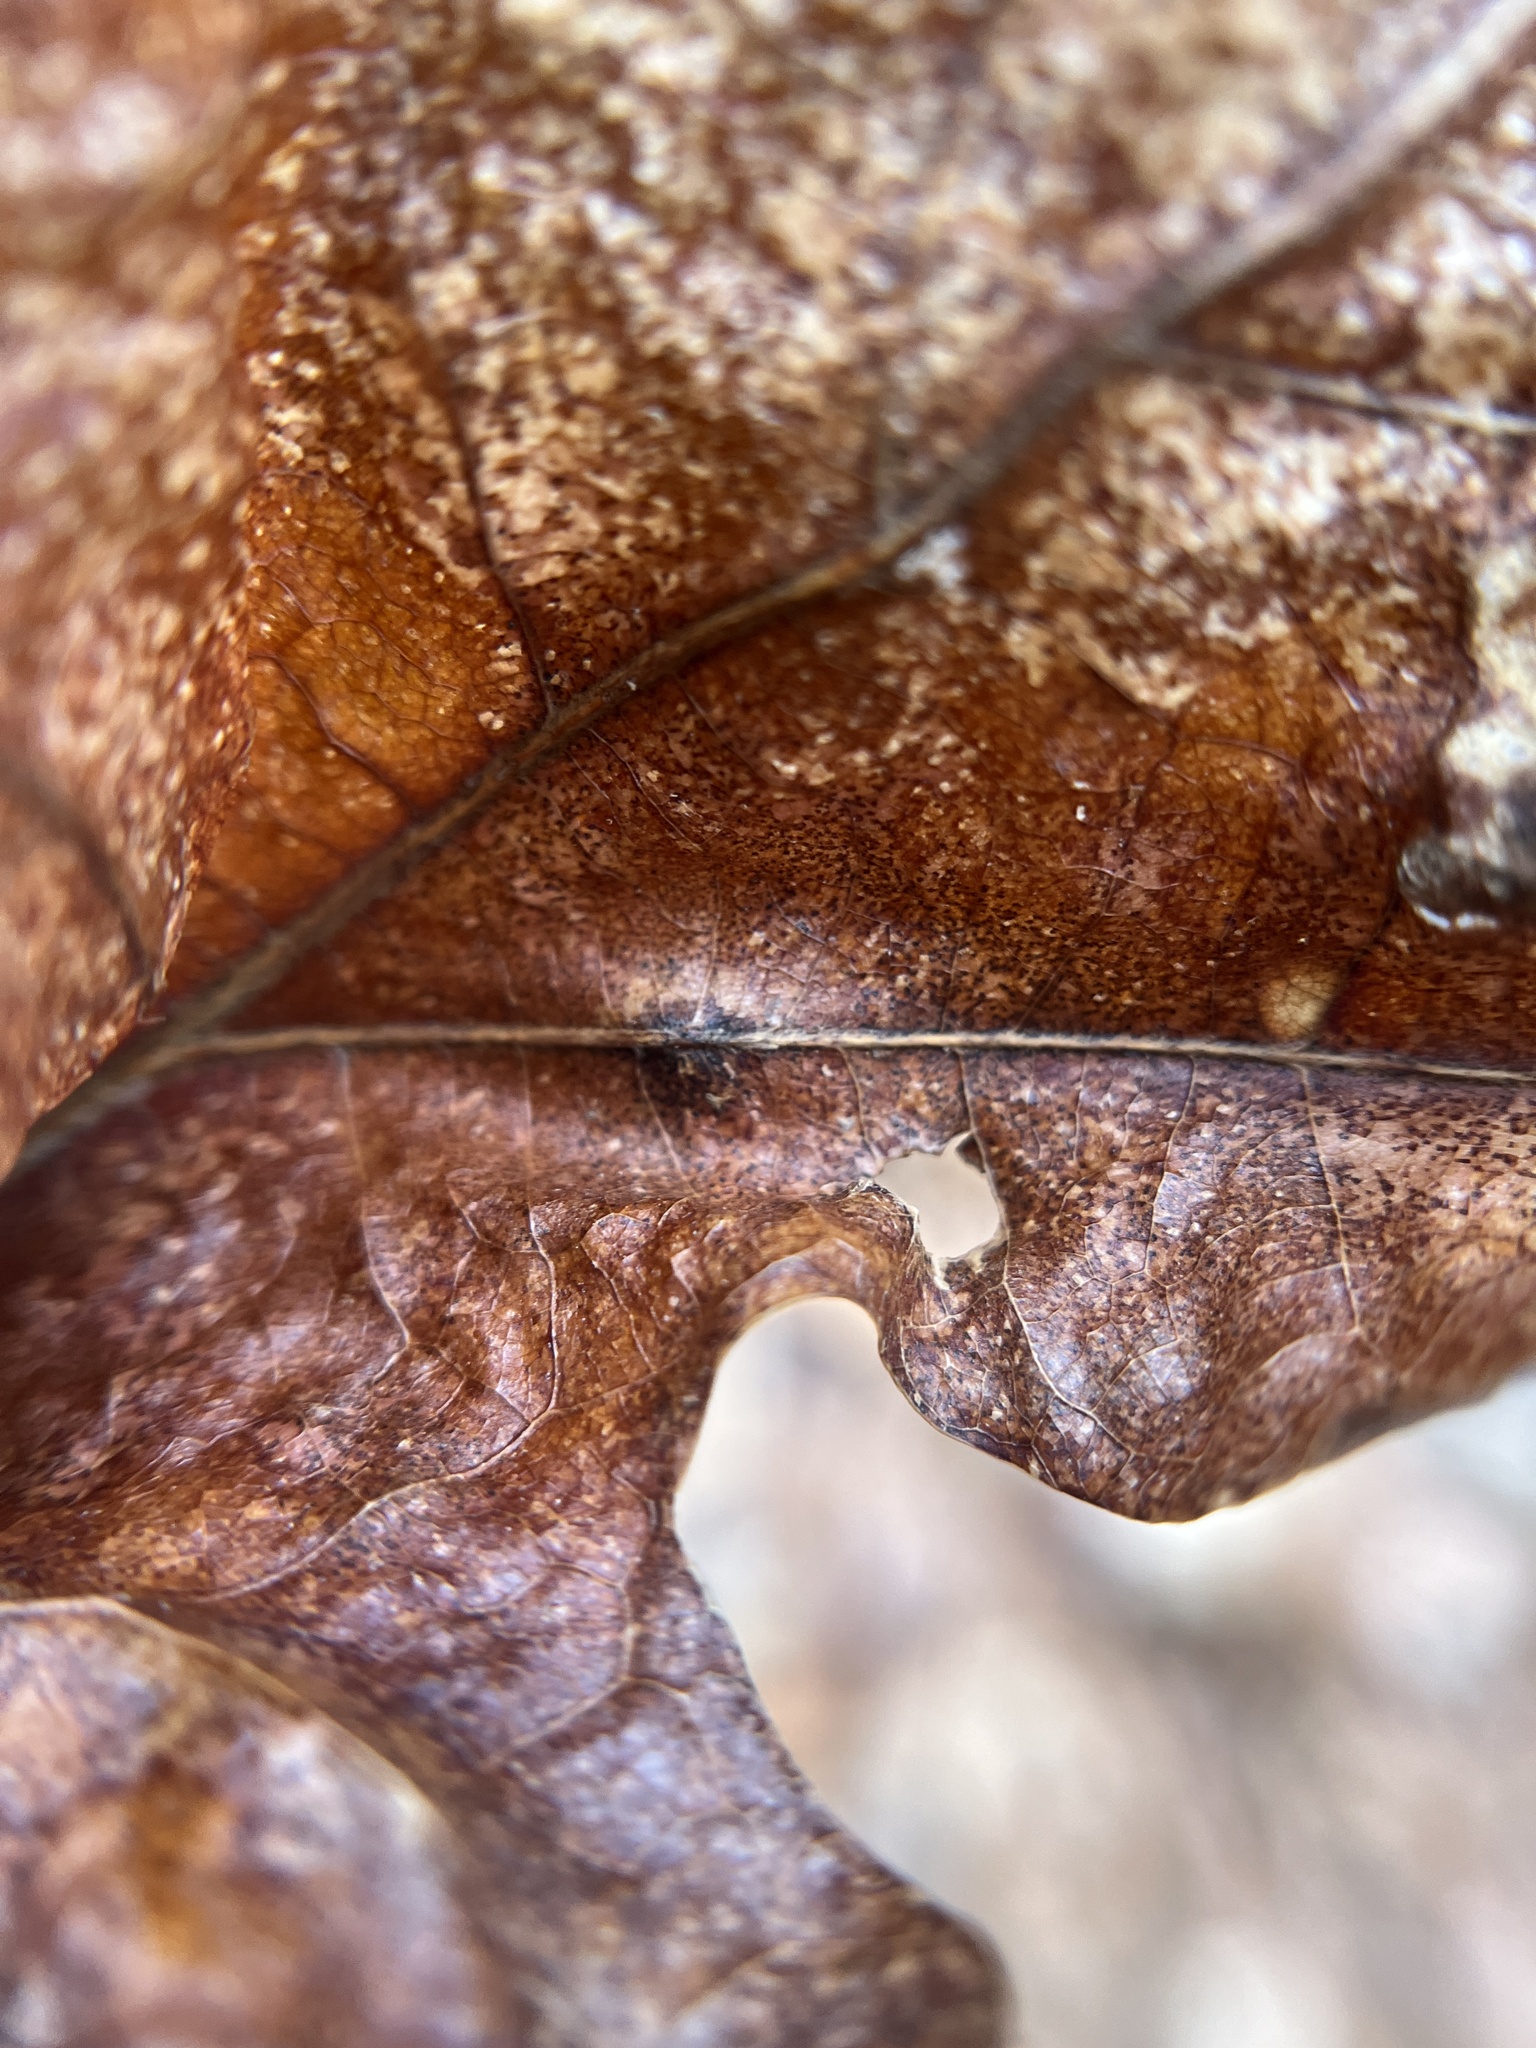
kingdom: Animalia
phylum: Arthropoda
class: Insecta
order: Hymenoptera
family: Cynipidae
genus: Acraspis
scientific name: Acraspis
